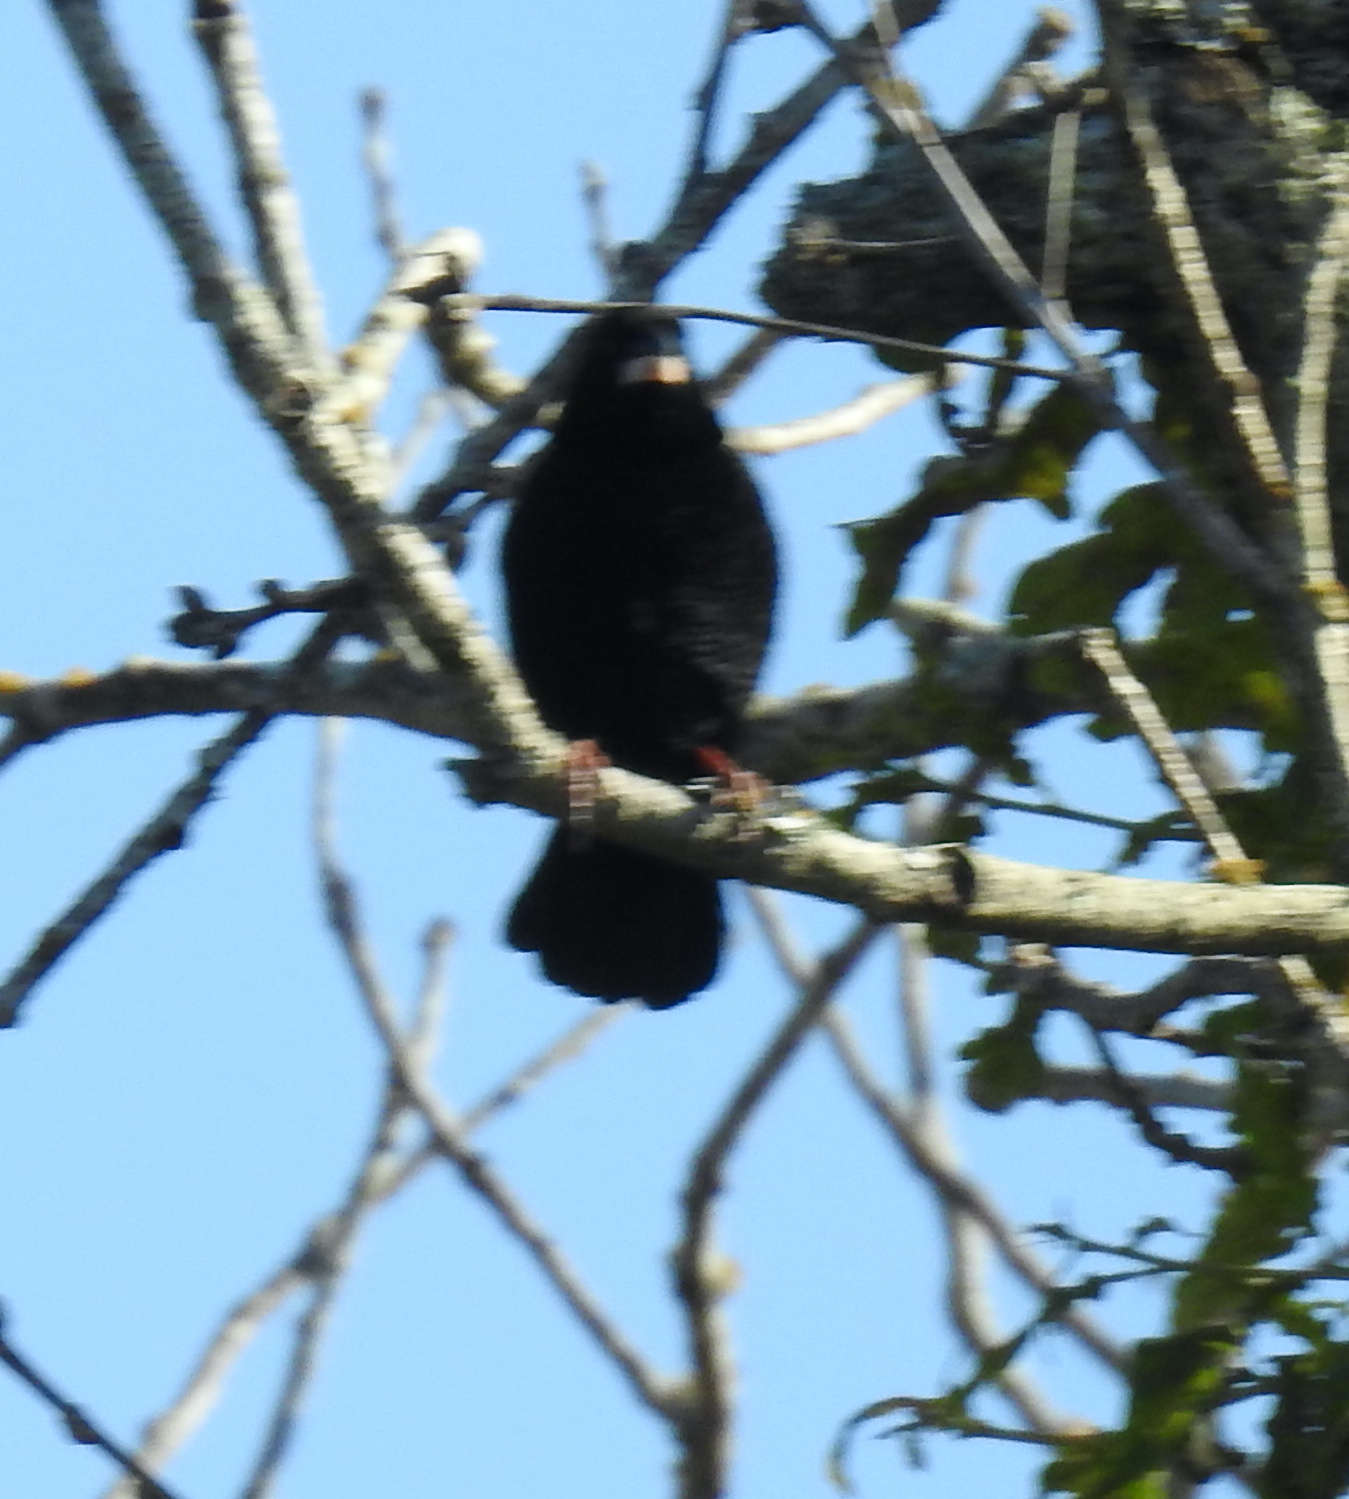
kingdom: Animalia
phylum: Chordata
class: Aves
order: Passeriformes
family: Ploceidae
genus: Euplectes
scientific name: Euplectes capensis
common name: Yellow bishop
